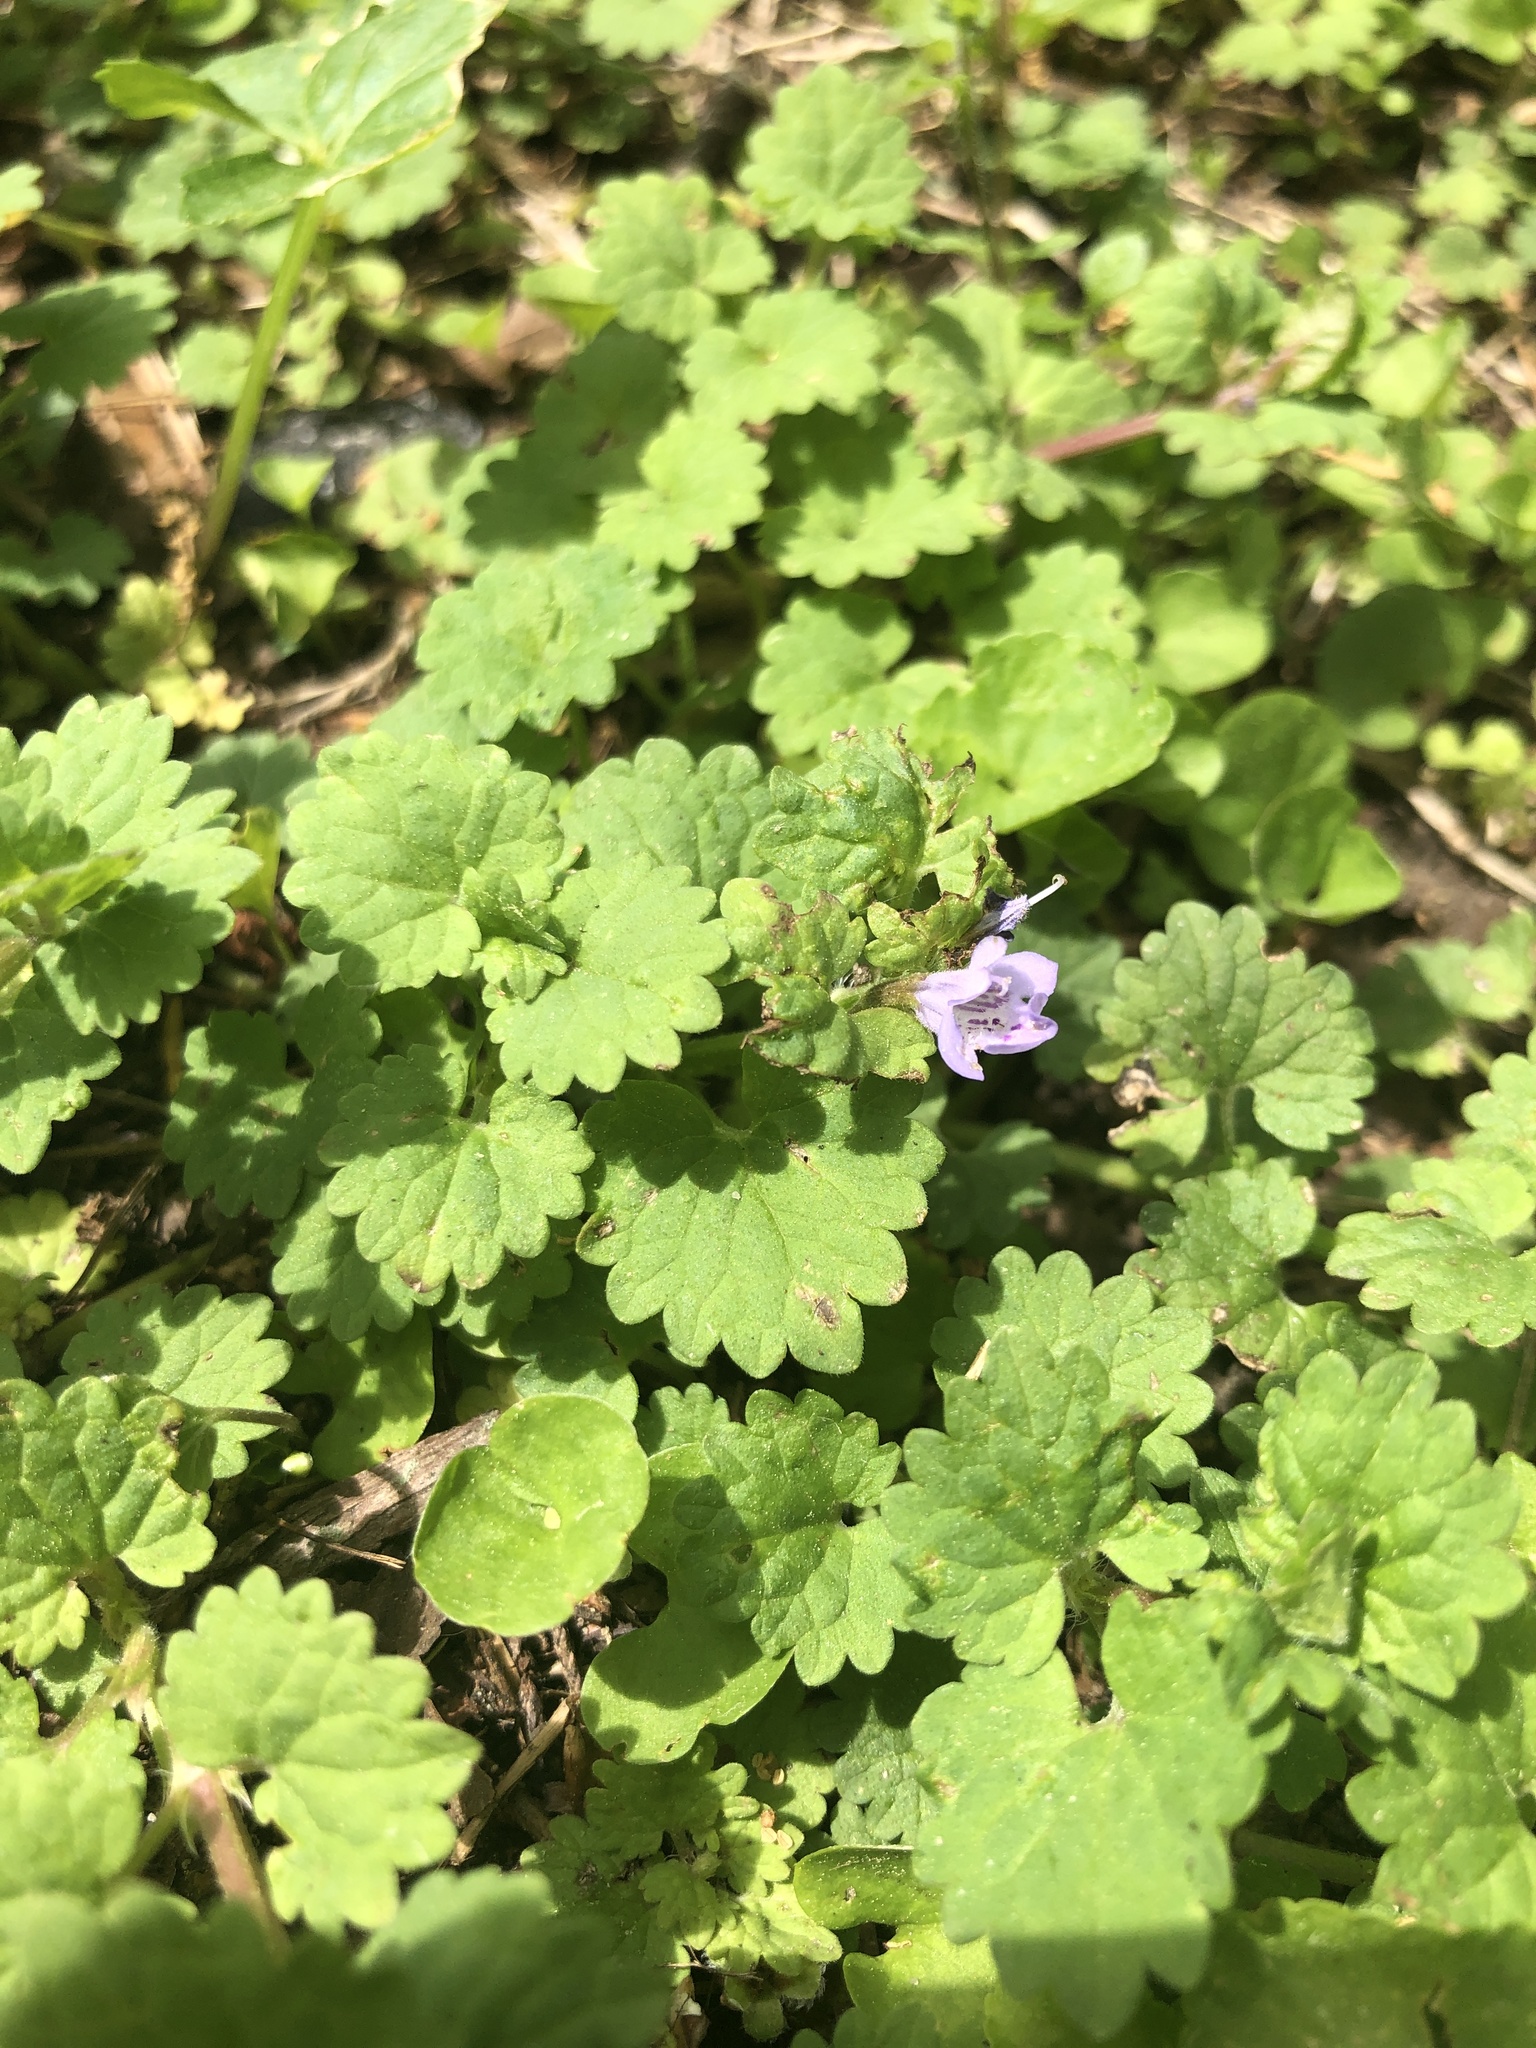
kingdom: Plantae
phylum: Tracheophyta
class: Magnoliopsida
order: Lamiales
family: Lamiaceae
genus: Glechoma
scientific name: Glechoma hederacea
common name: Ground ivy
